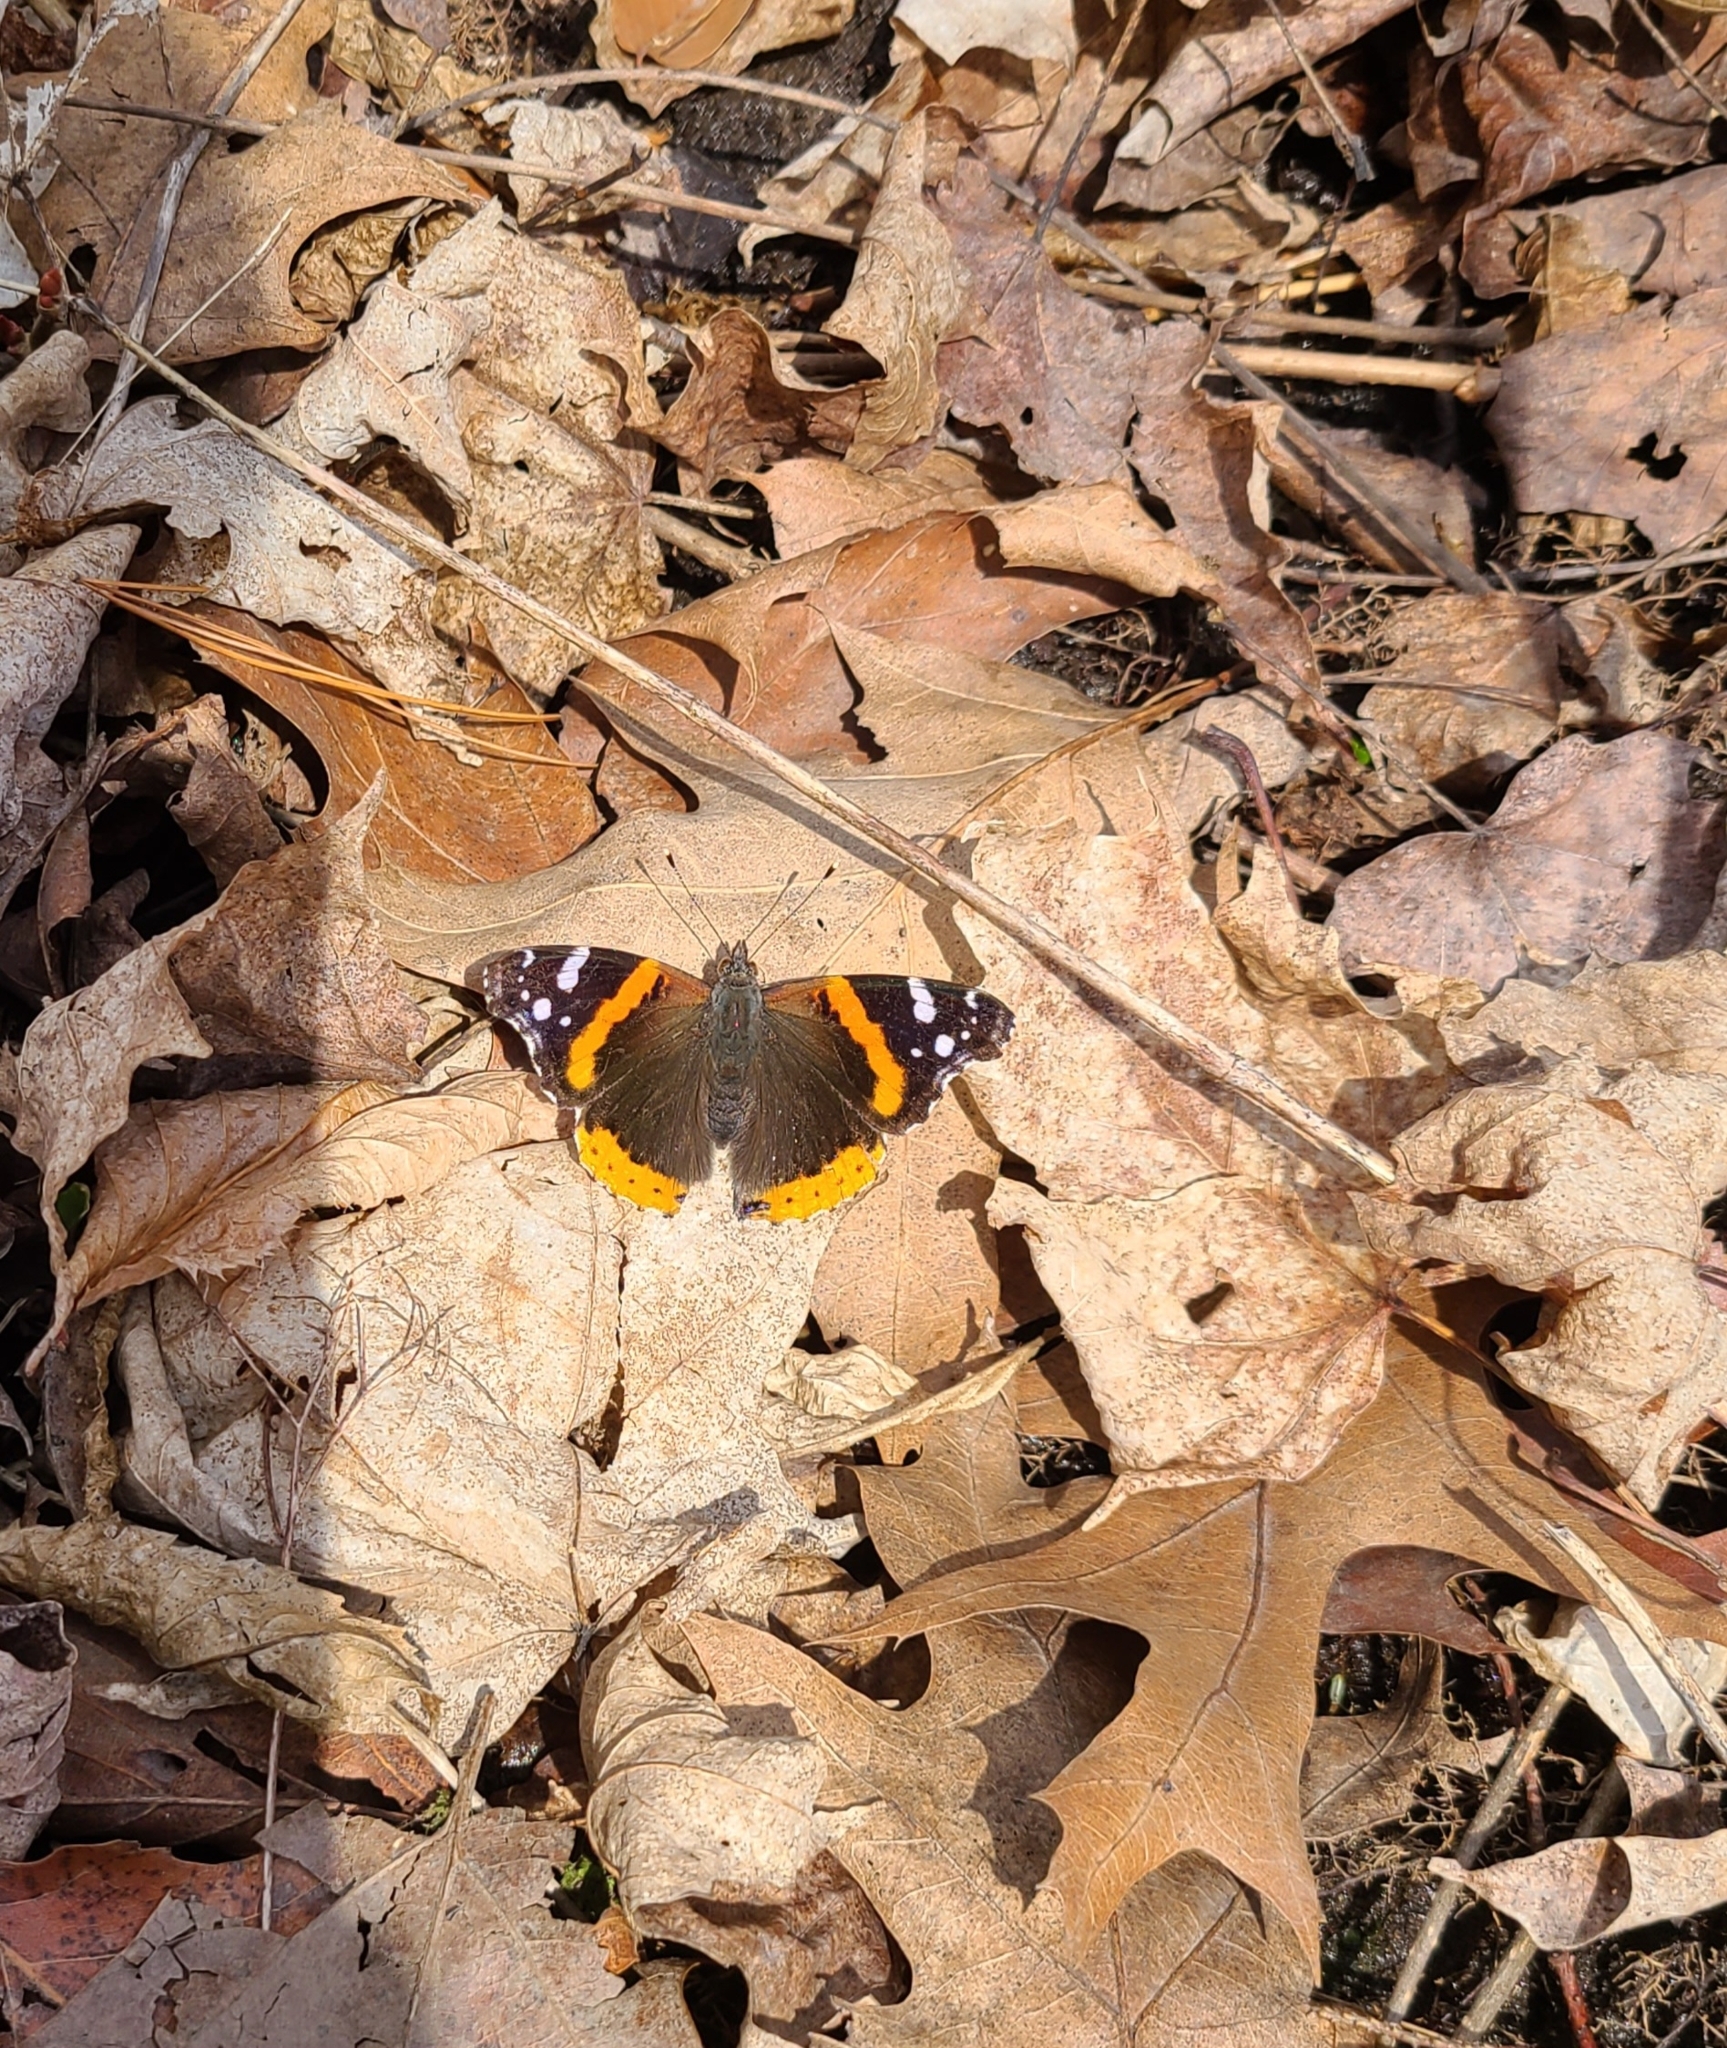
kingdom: Animalia
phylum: Arthropoda
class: Insecta
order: Lepidoptera
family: Nymphalidae
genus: Vanessa
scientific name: Vanessa atalanta
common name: Red admiral
